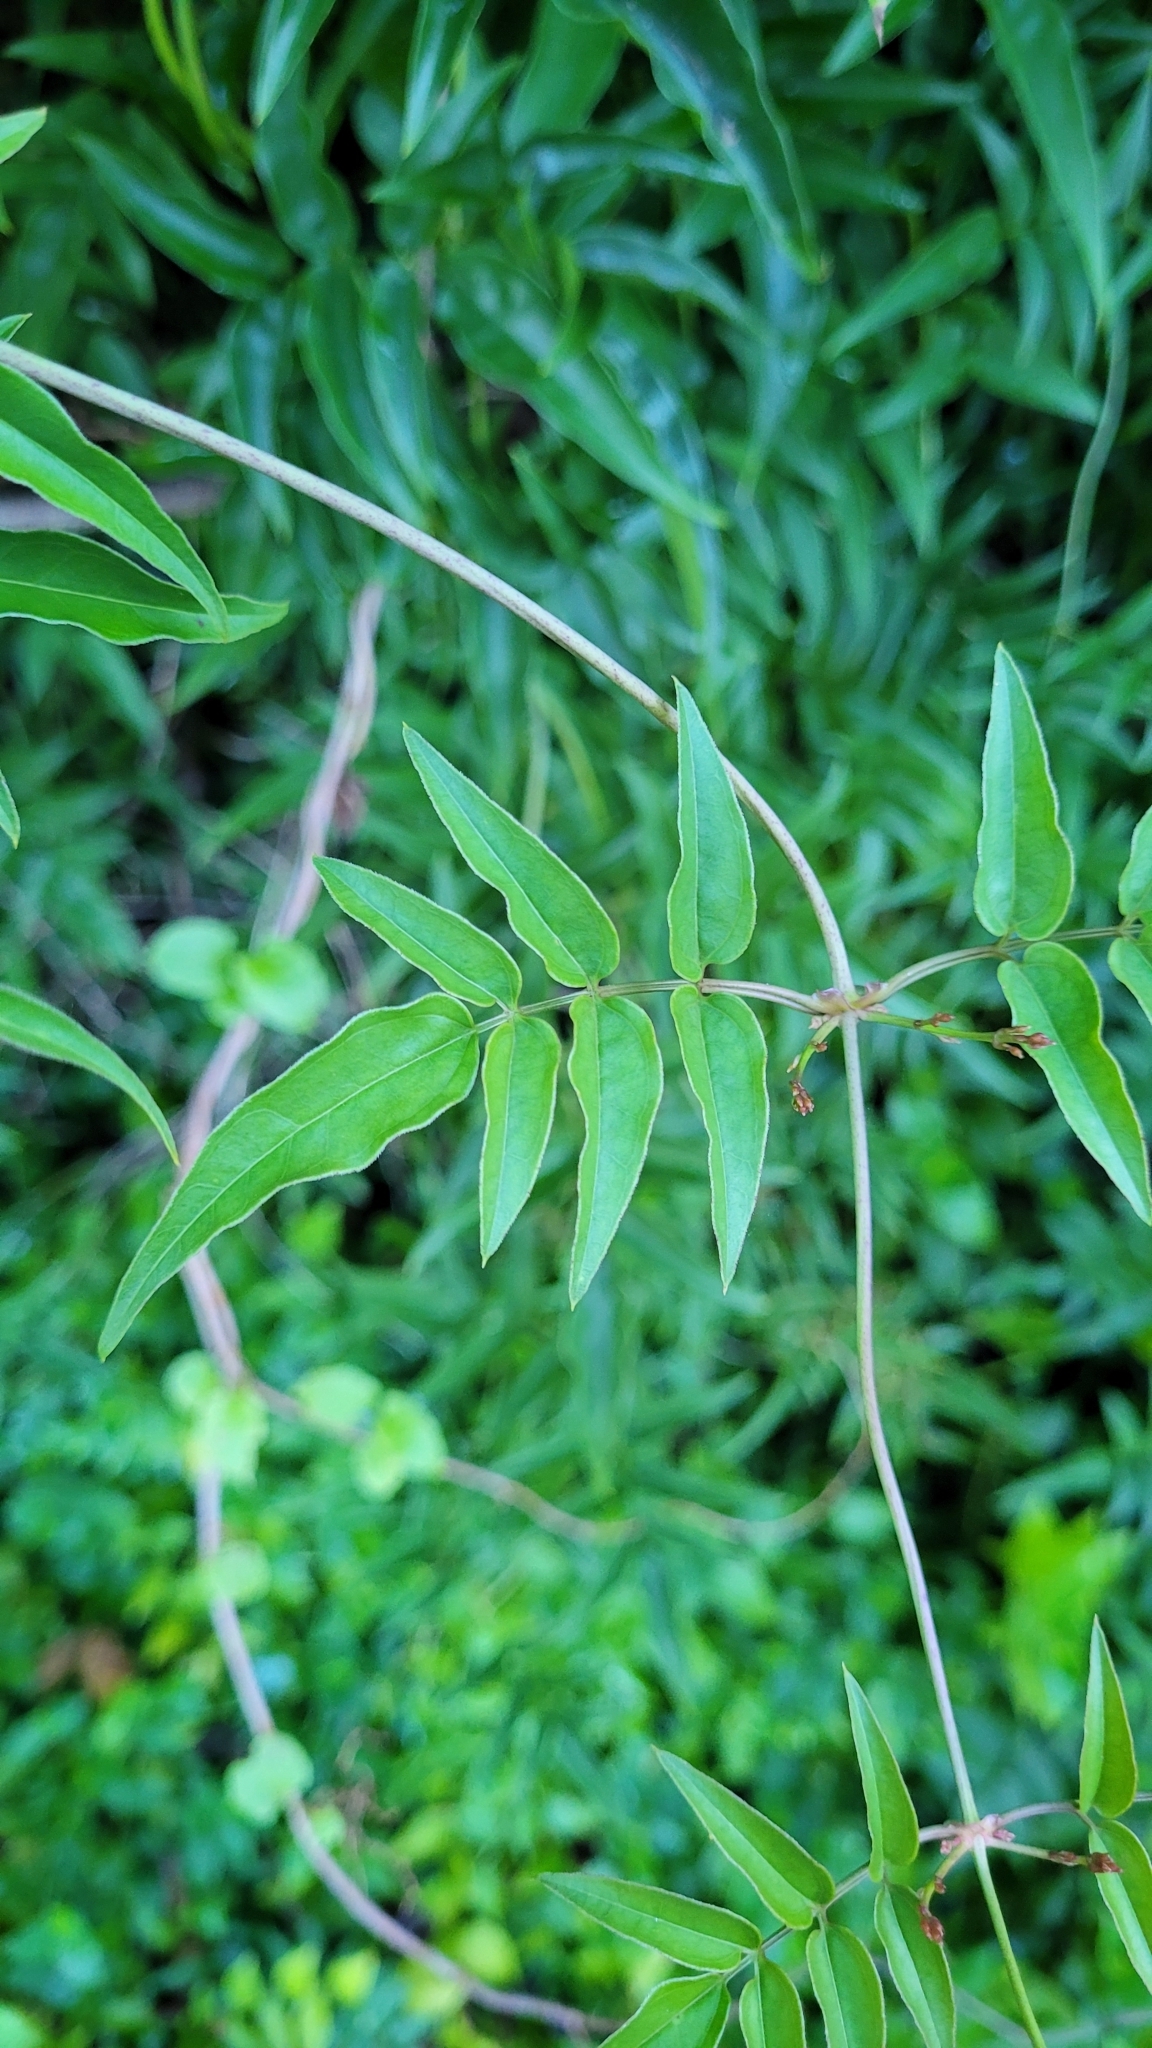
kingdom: Plantae
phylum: Tracheophyta
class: Magnoliopsida
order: Lamiales
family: Oleaceae
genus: Jasminum
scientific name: Jasminum polyanthum
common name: Pink jasmine
